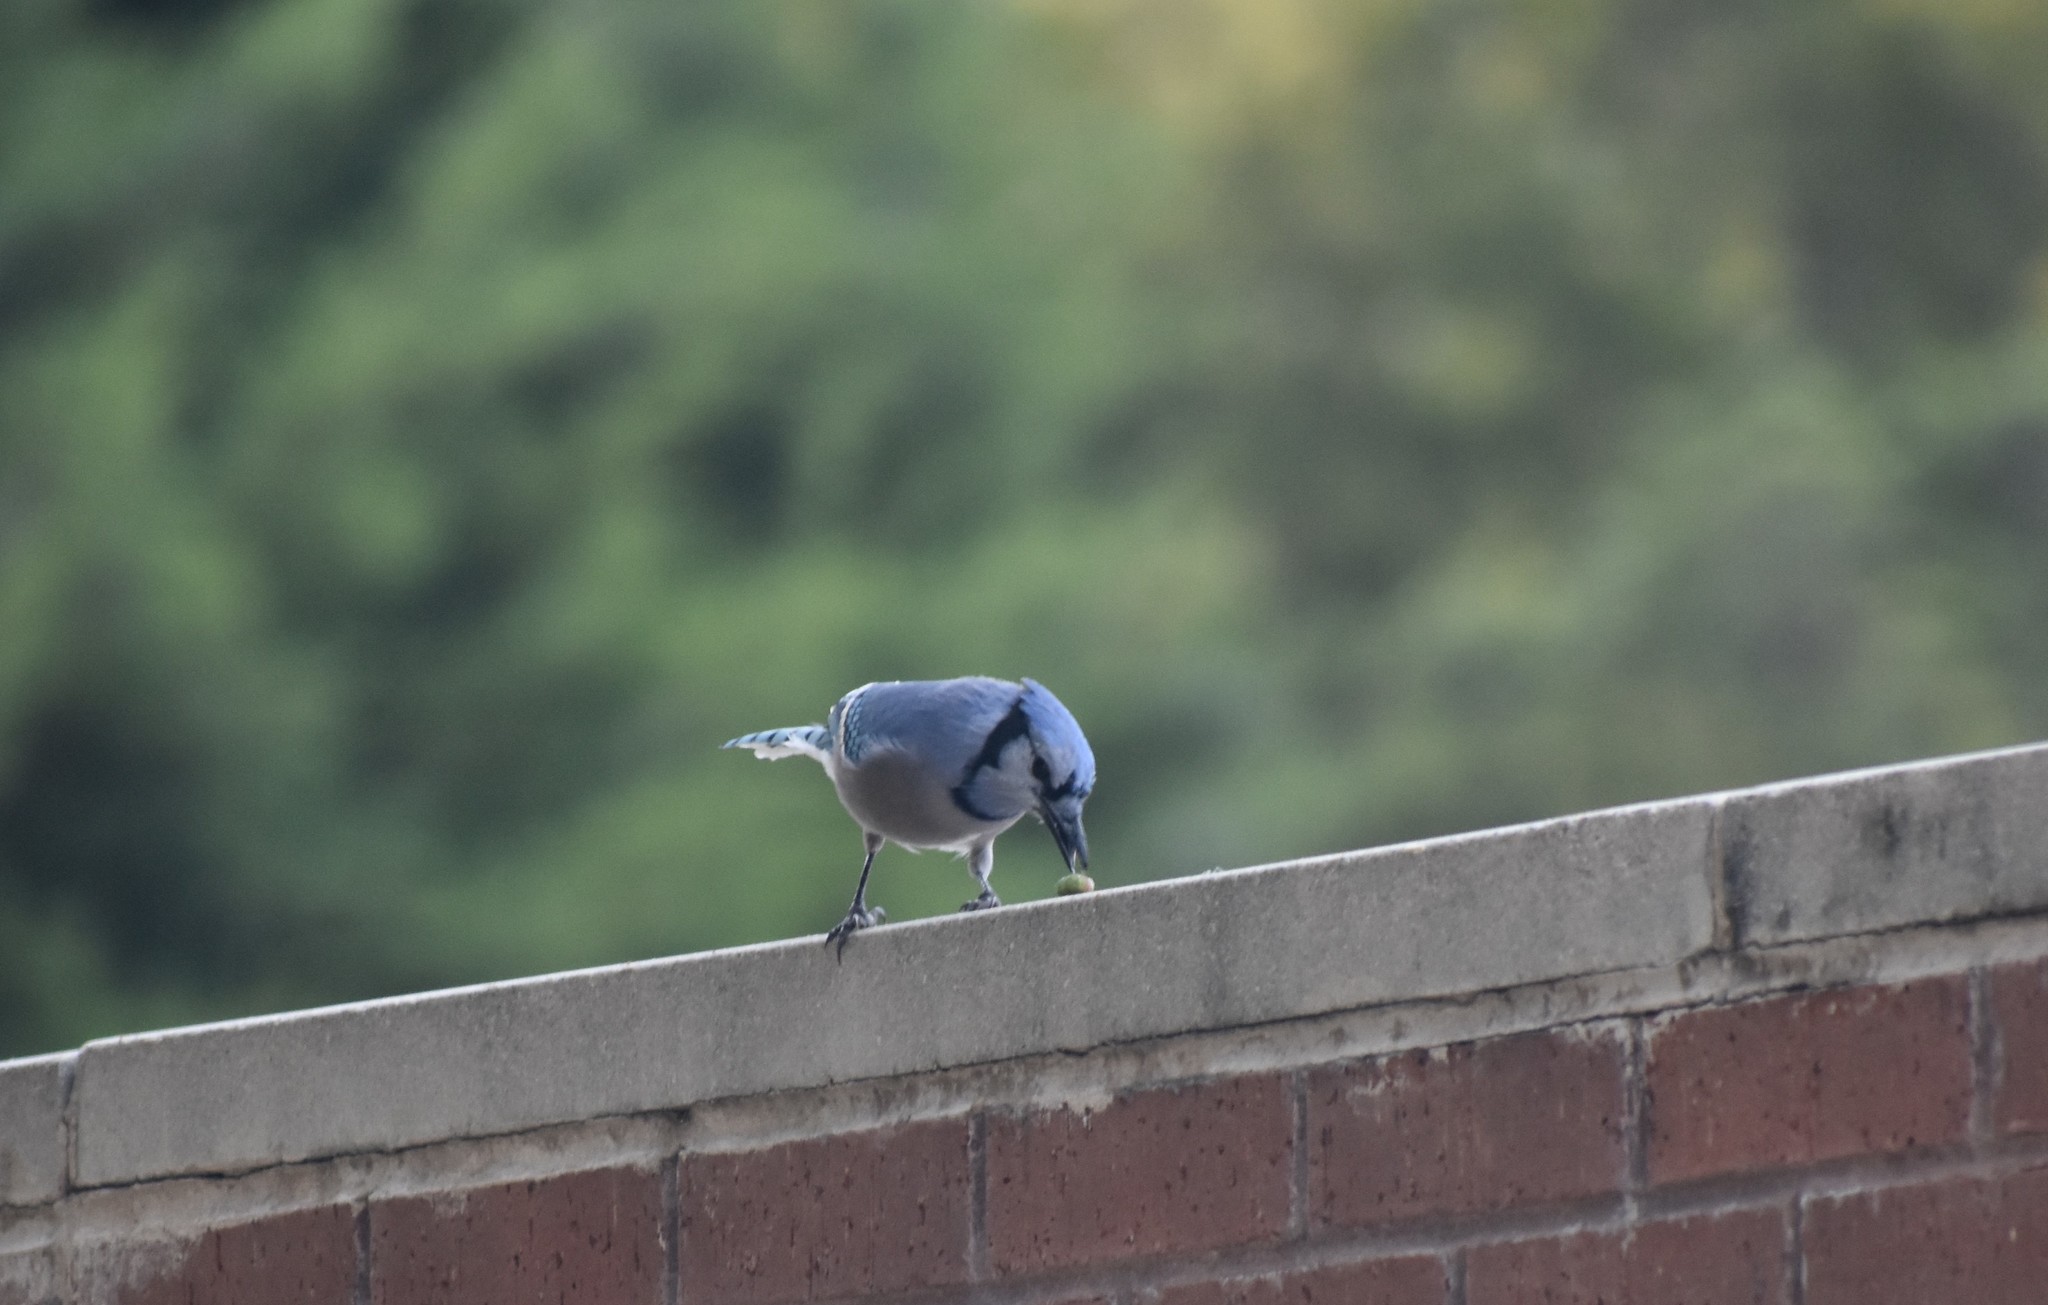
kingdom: Animalia
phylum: Chordata
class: Aves
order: Passeriformes
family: Corvidae
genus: Cyanocitta
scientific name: Cyanocitta cristata
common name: Blue jay
